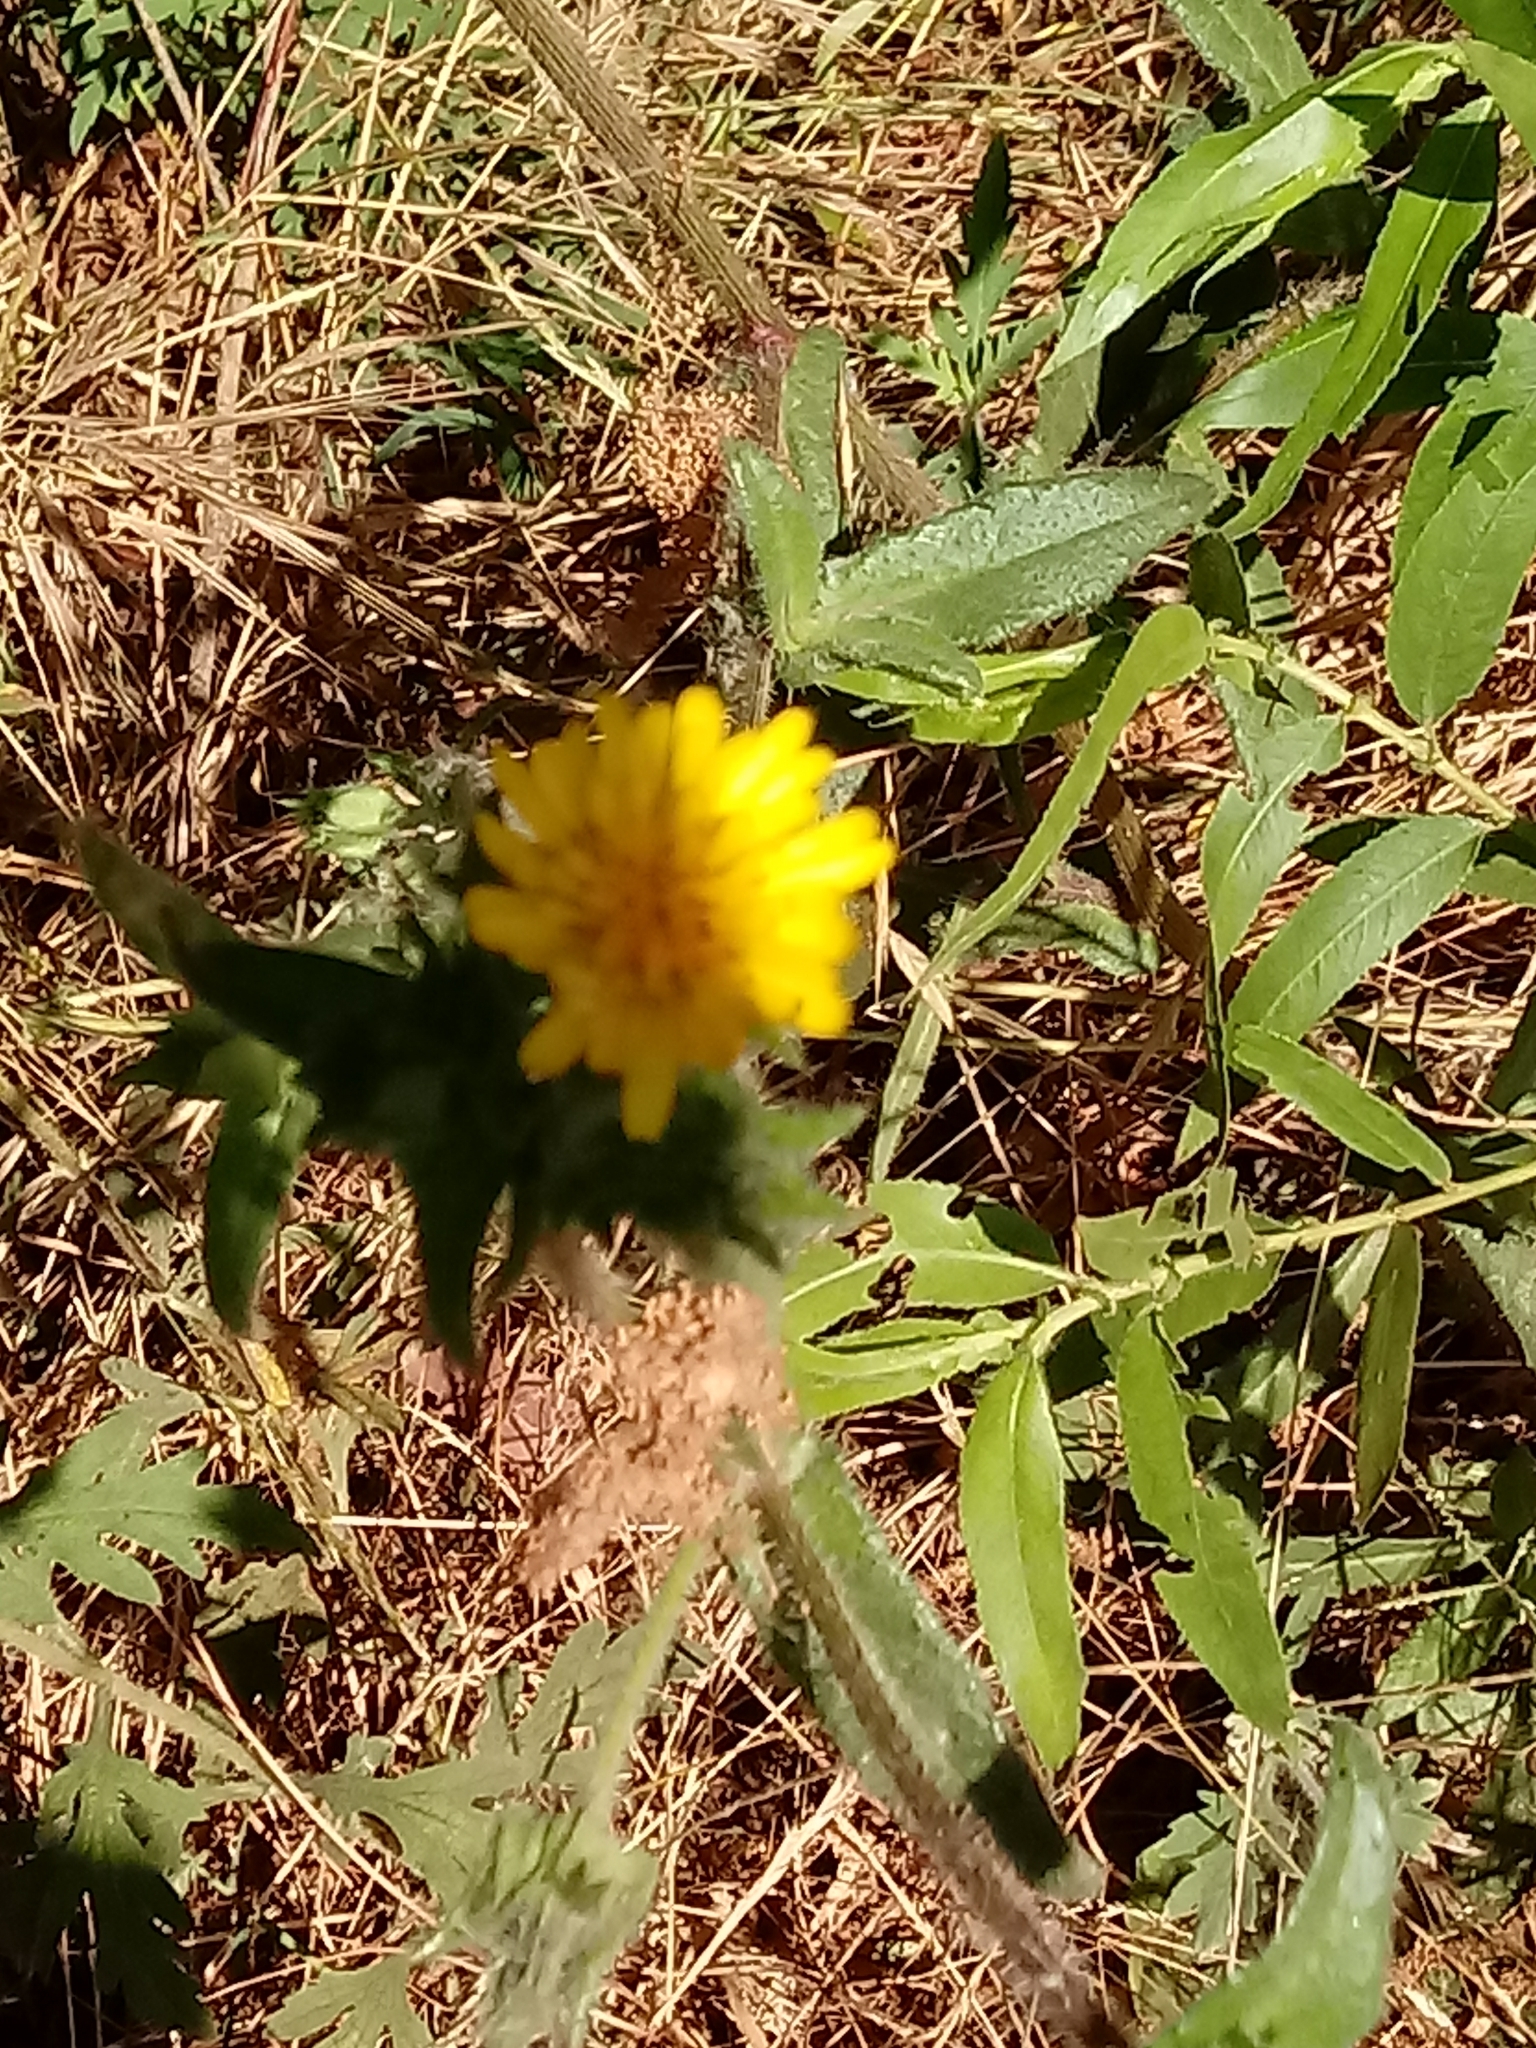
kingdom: Plantae
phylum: Tracheophyta
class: Magnoliopsida
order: Asterales
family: Asteraceae
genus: Helminthotheca
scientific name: Helminthotheca echioides
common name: Ox-tongue
